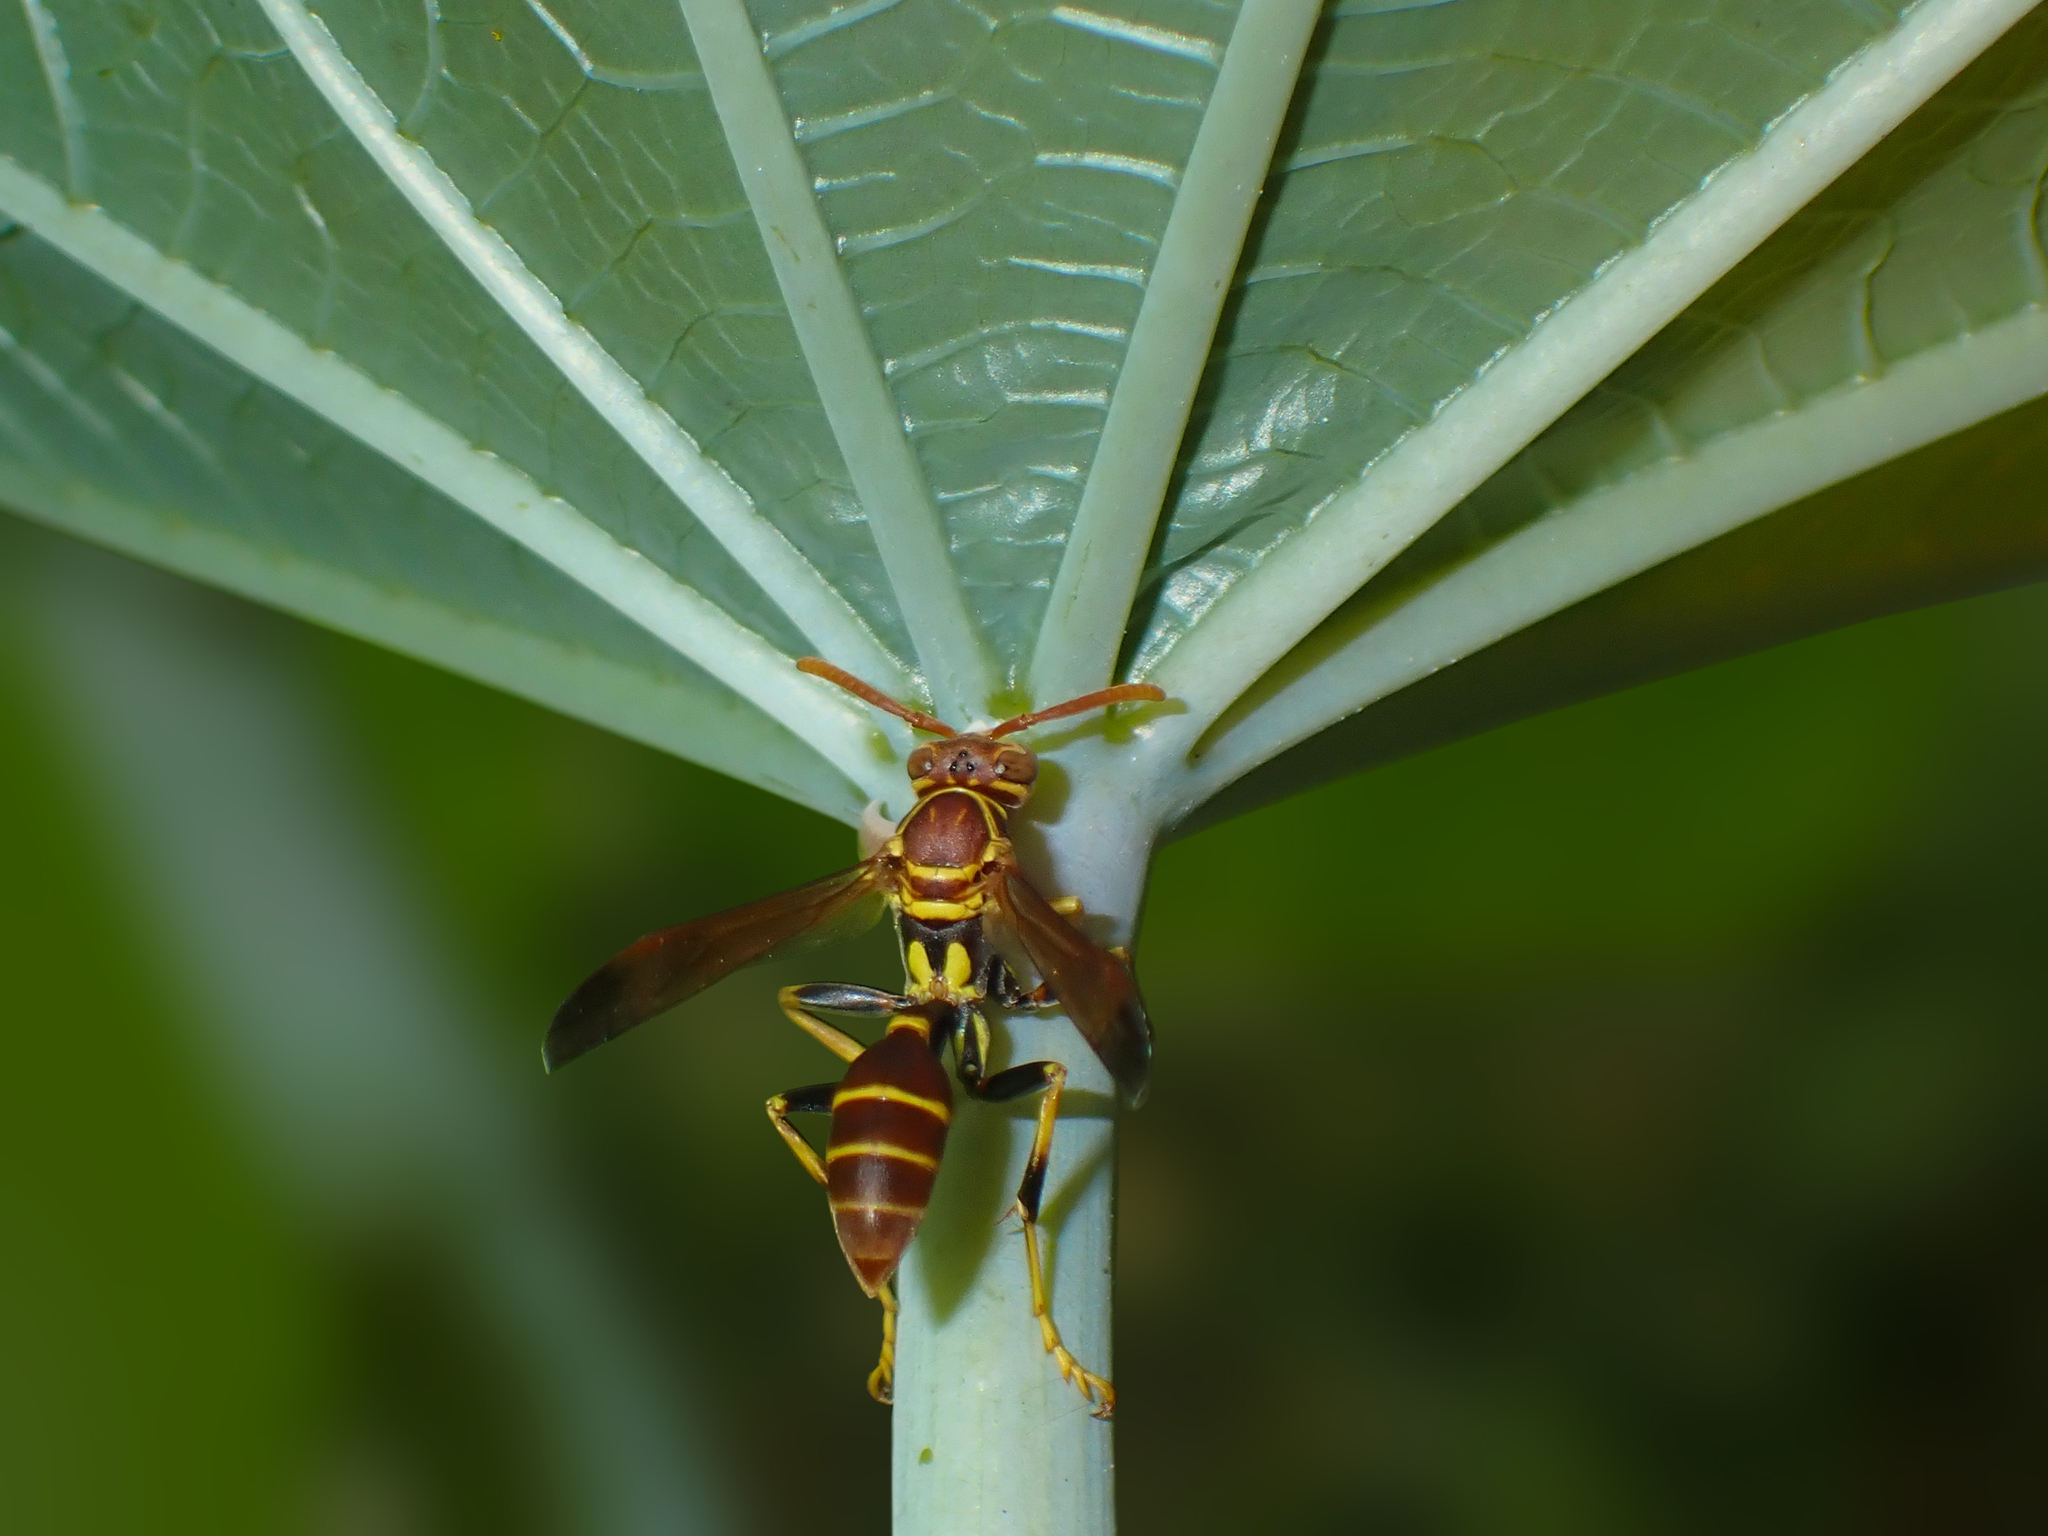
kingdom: Animalia
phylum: Arthropoda
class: Insecta
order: Hymenoptera
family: Vespidae
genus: Mischocyttarus
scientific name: Mischocyttarus mexicanus
